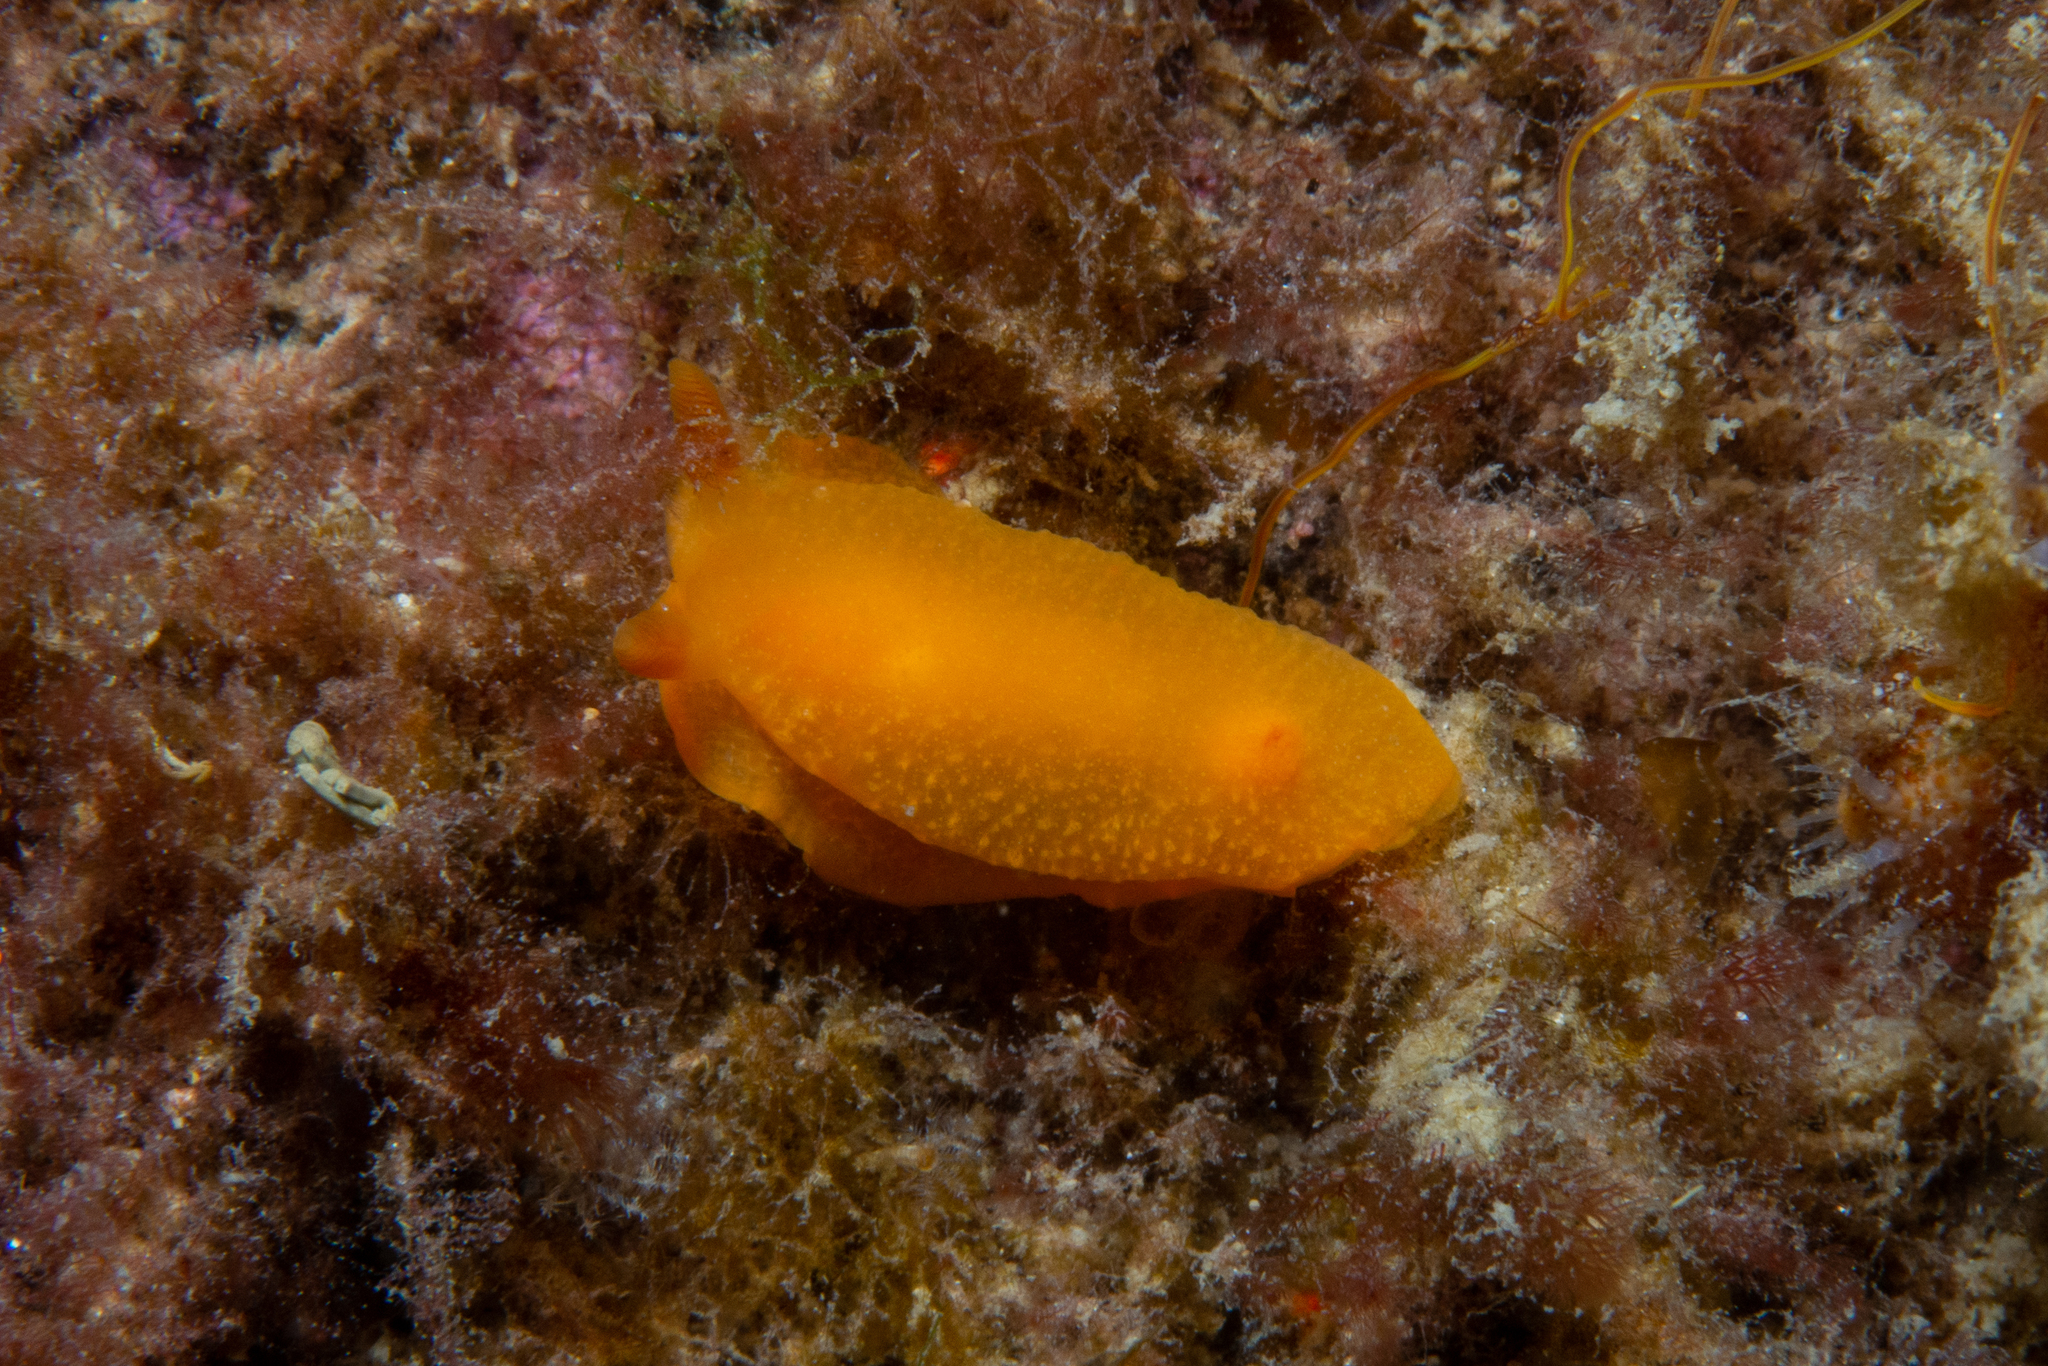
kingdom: Animalia
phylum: Mollusca
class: Gastropoda
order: Nudibranchia
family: Dendrodorididae
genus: Doriopsilla
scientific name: Doriopsilla carneola
